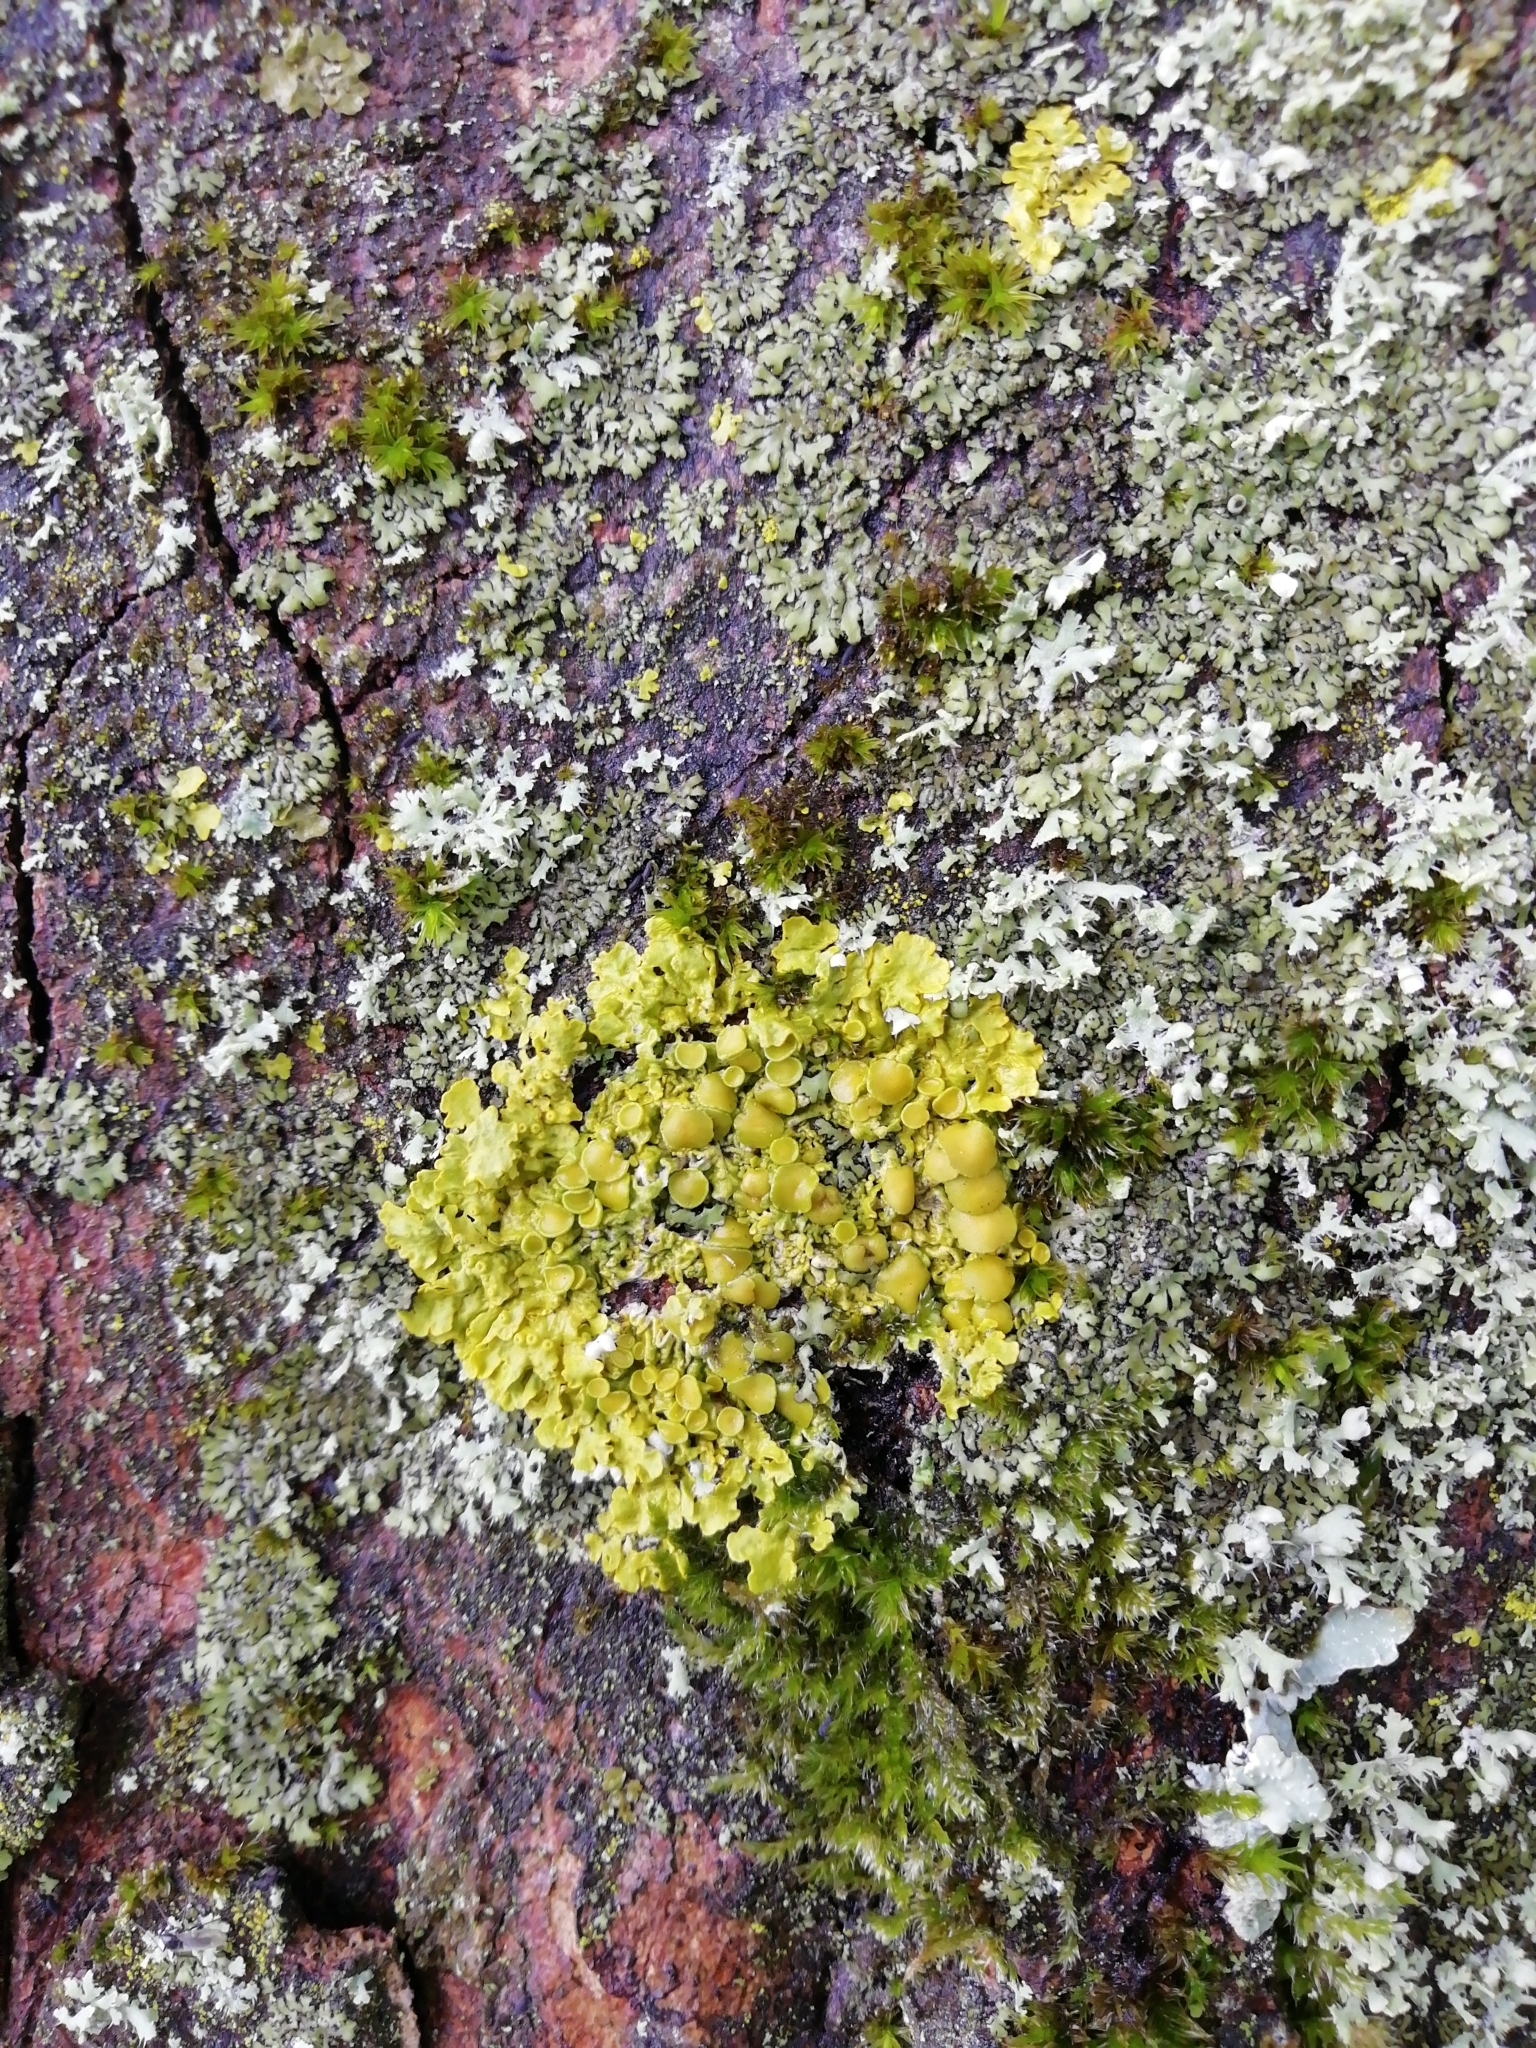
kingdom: Fungi
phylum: Ascomycota
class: Lecanoromycetes
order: Teloschistales
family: Teloschistaceae
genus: Xanthoria
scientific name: Xanthoria parietina
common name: Common orange lichen
